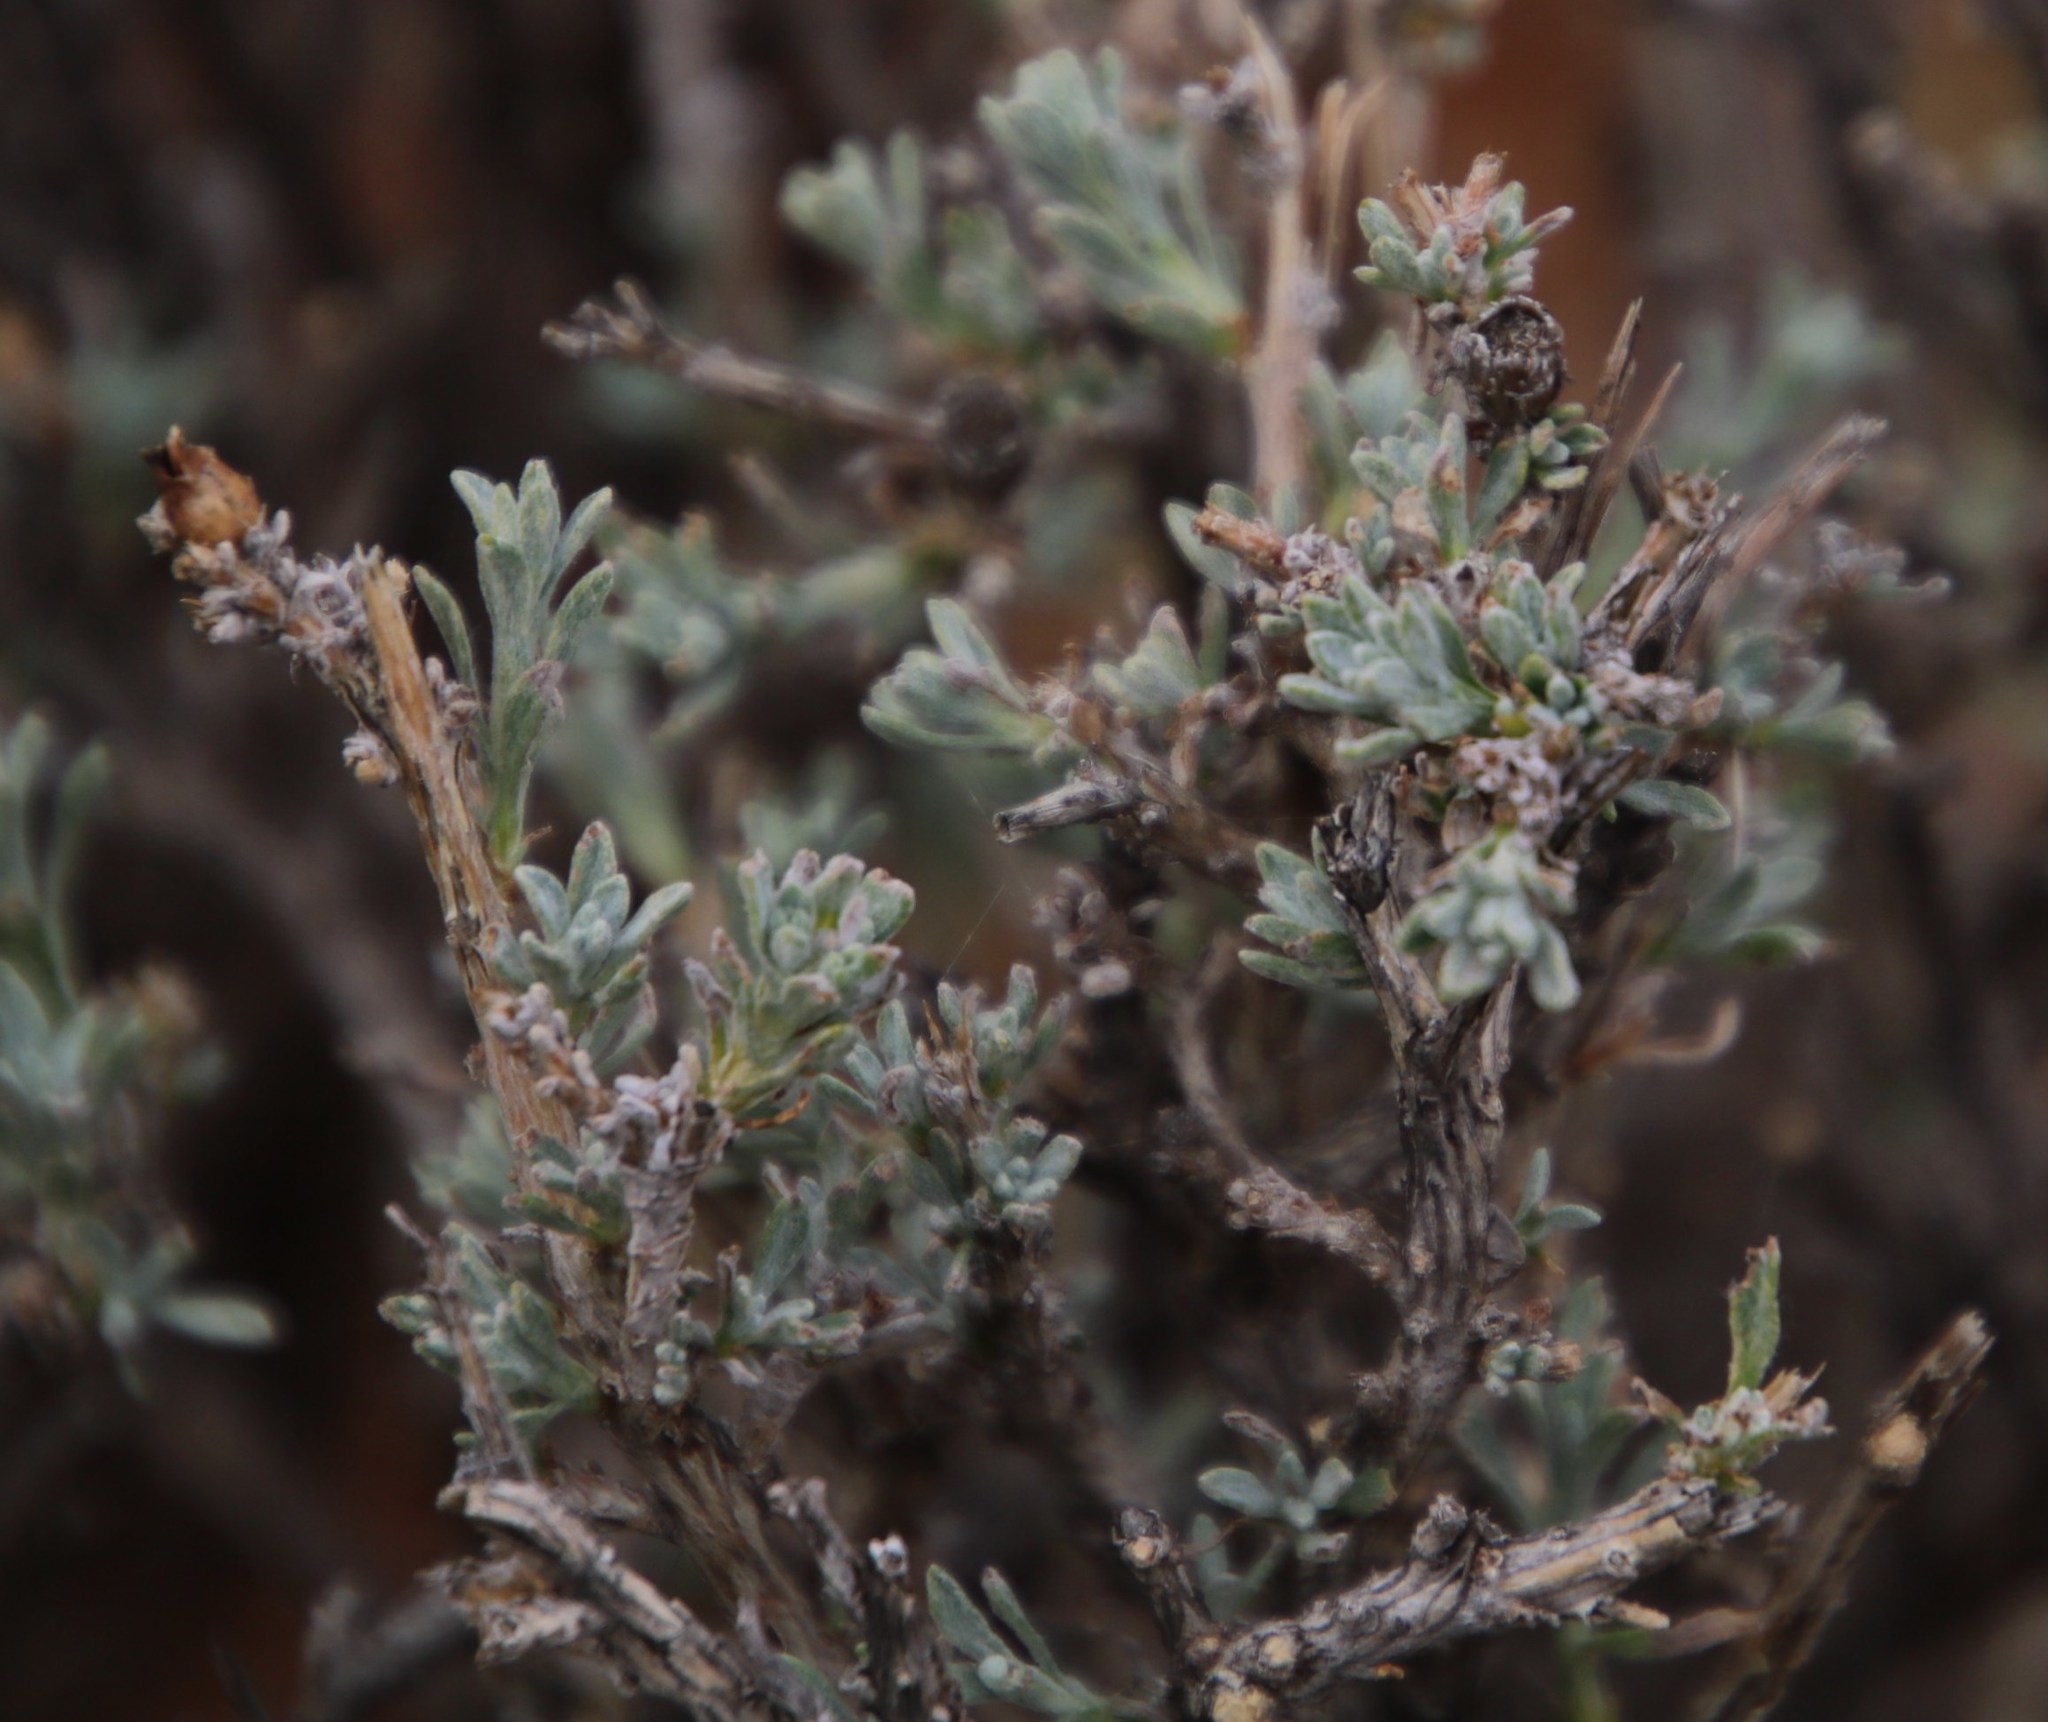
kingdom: Plantae
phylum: Tracheophyta
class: Magnoliopsida
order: Asterales
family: Asteraceae
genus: Oedera
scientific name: Oedera humilis
